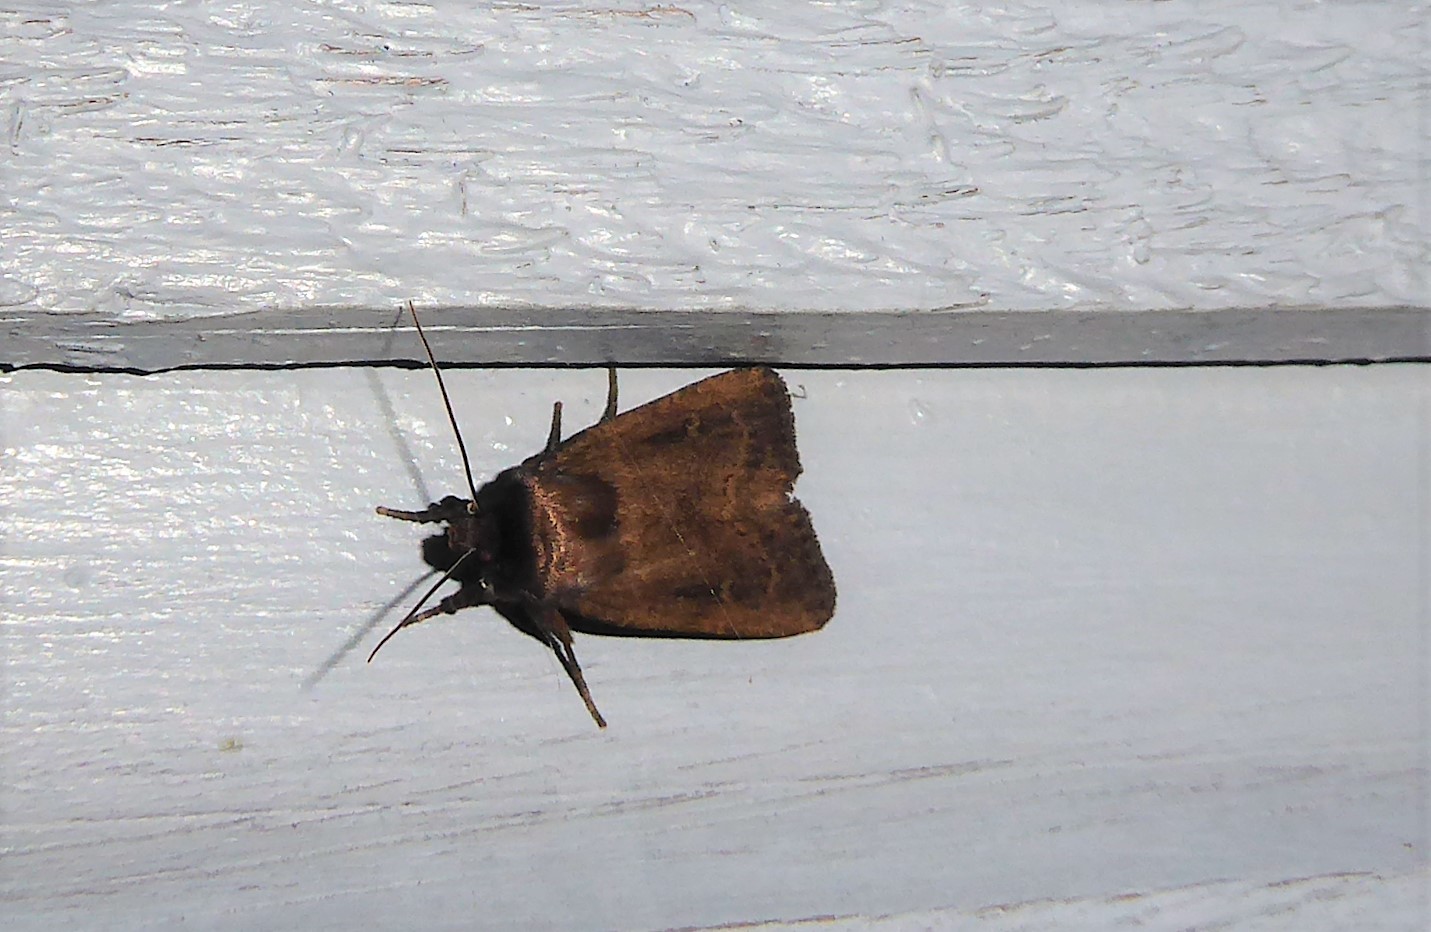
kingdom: Animalia
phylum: Arthropoda
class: Insecta
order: Lepidoptera
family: Noctuidae
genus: Bityla
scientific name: Bityla defigurata
